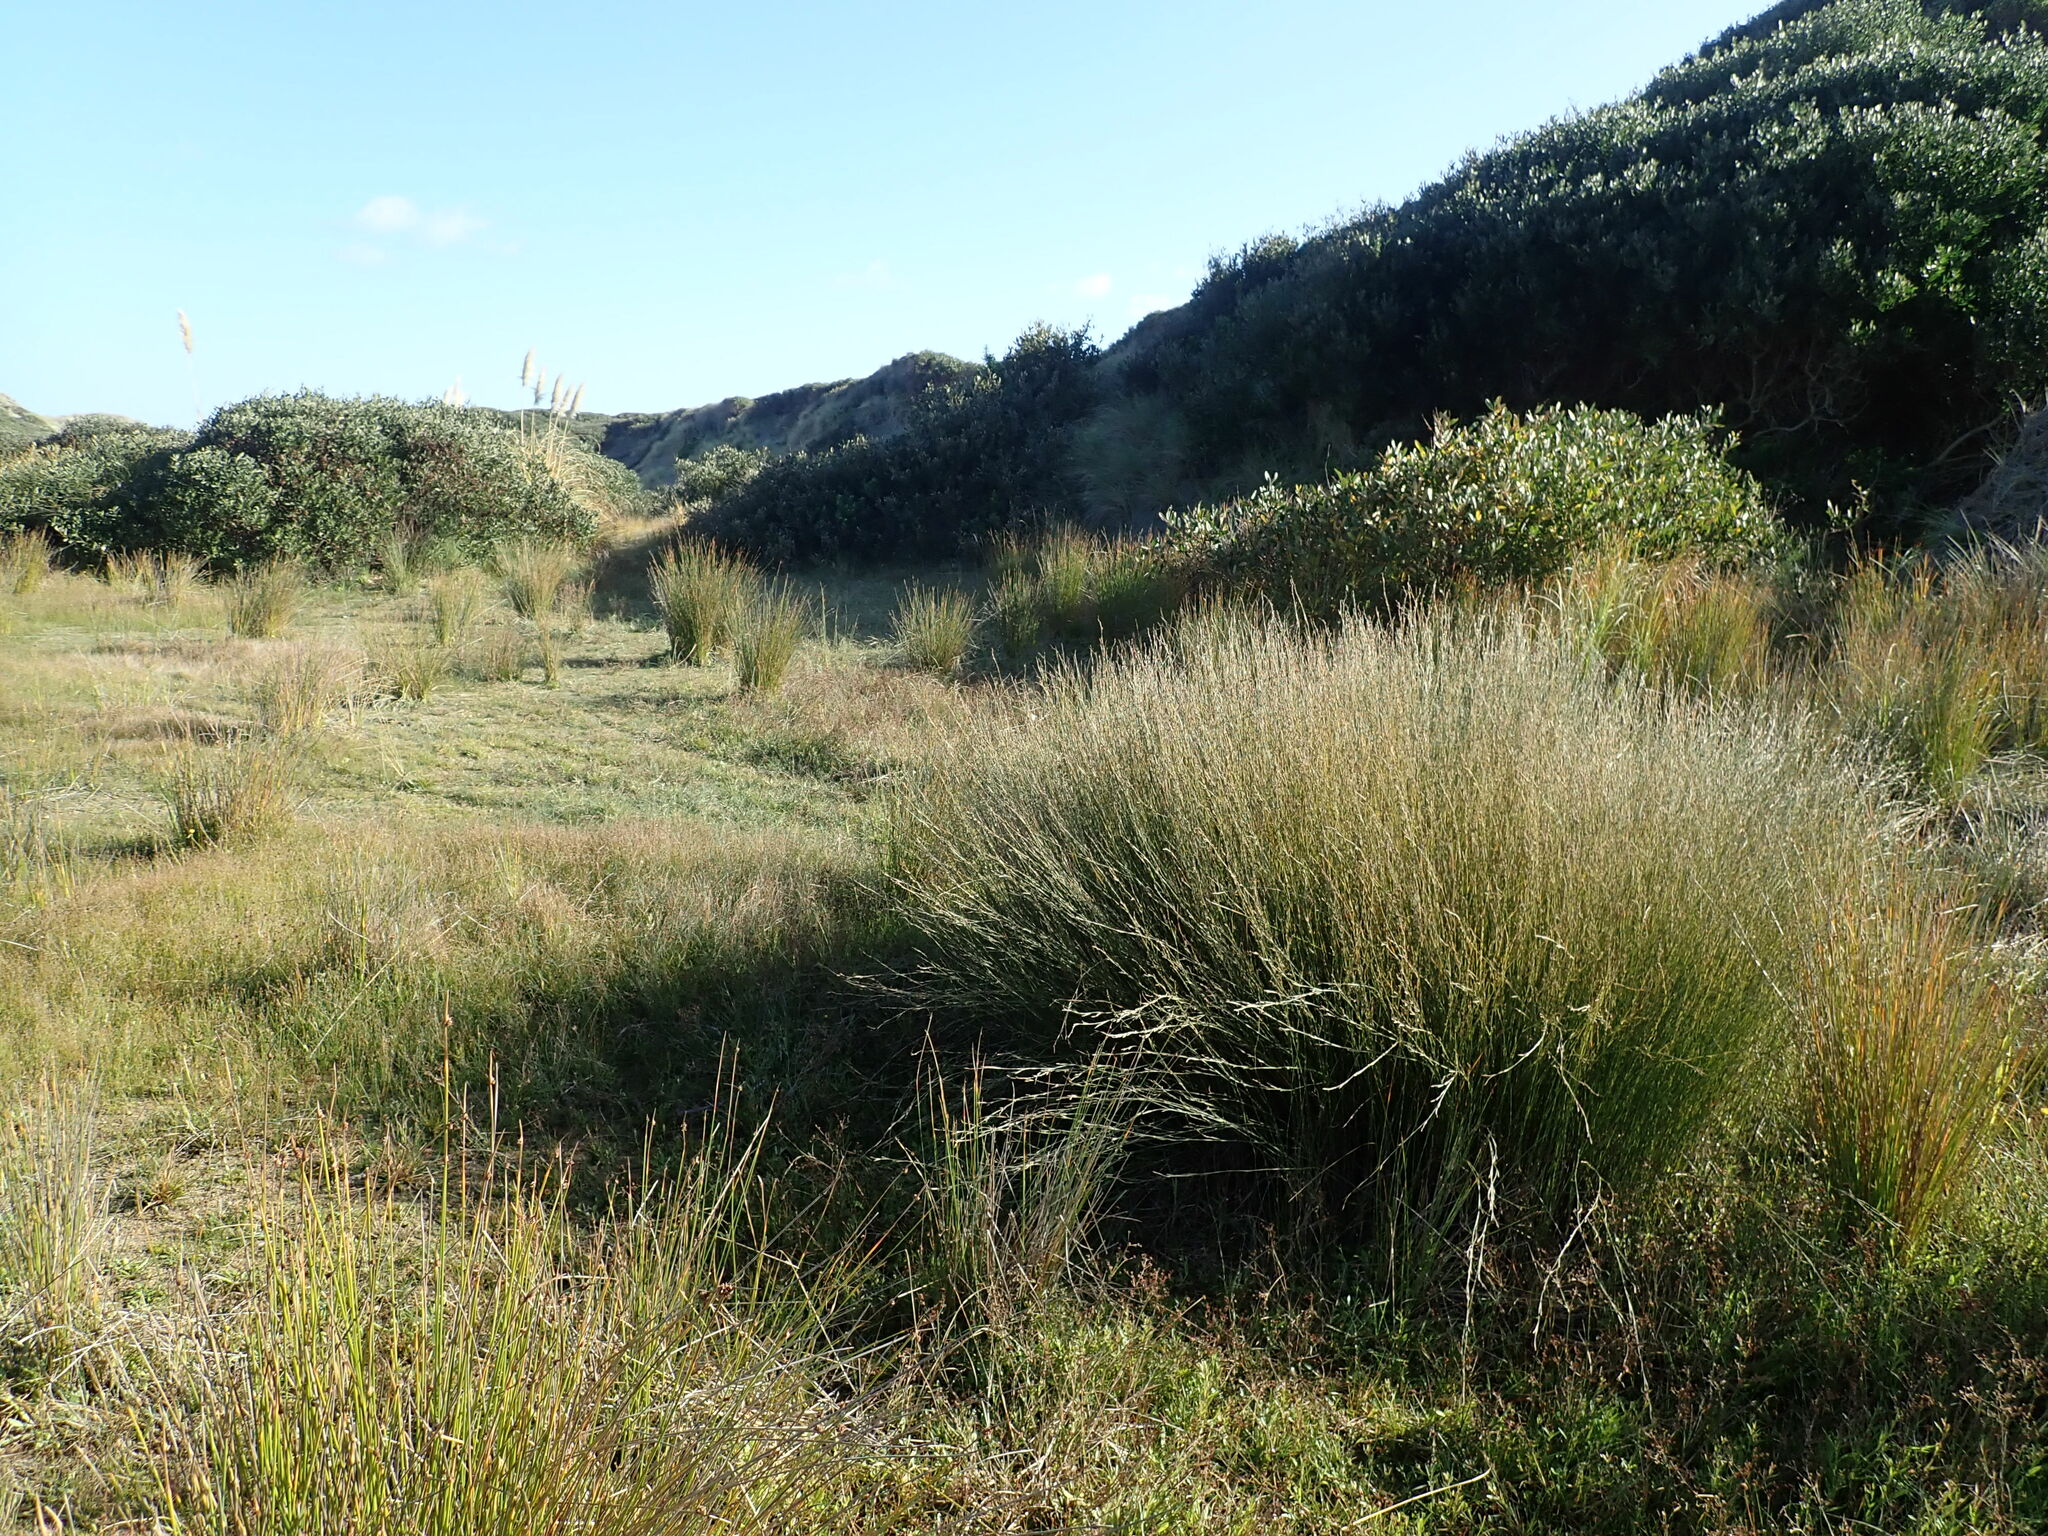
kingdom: Plantae
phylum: Tracheophyta
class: Liliopsida
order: Poales
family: Restionaceae
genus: Apodasmia
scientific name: Apodasmia similis
